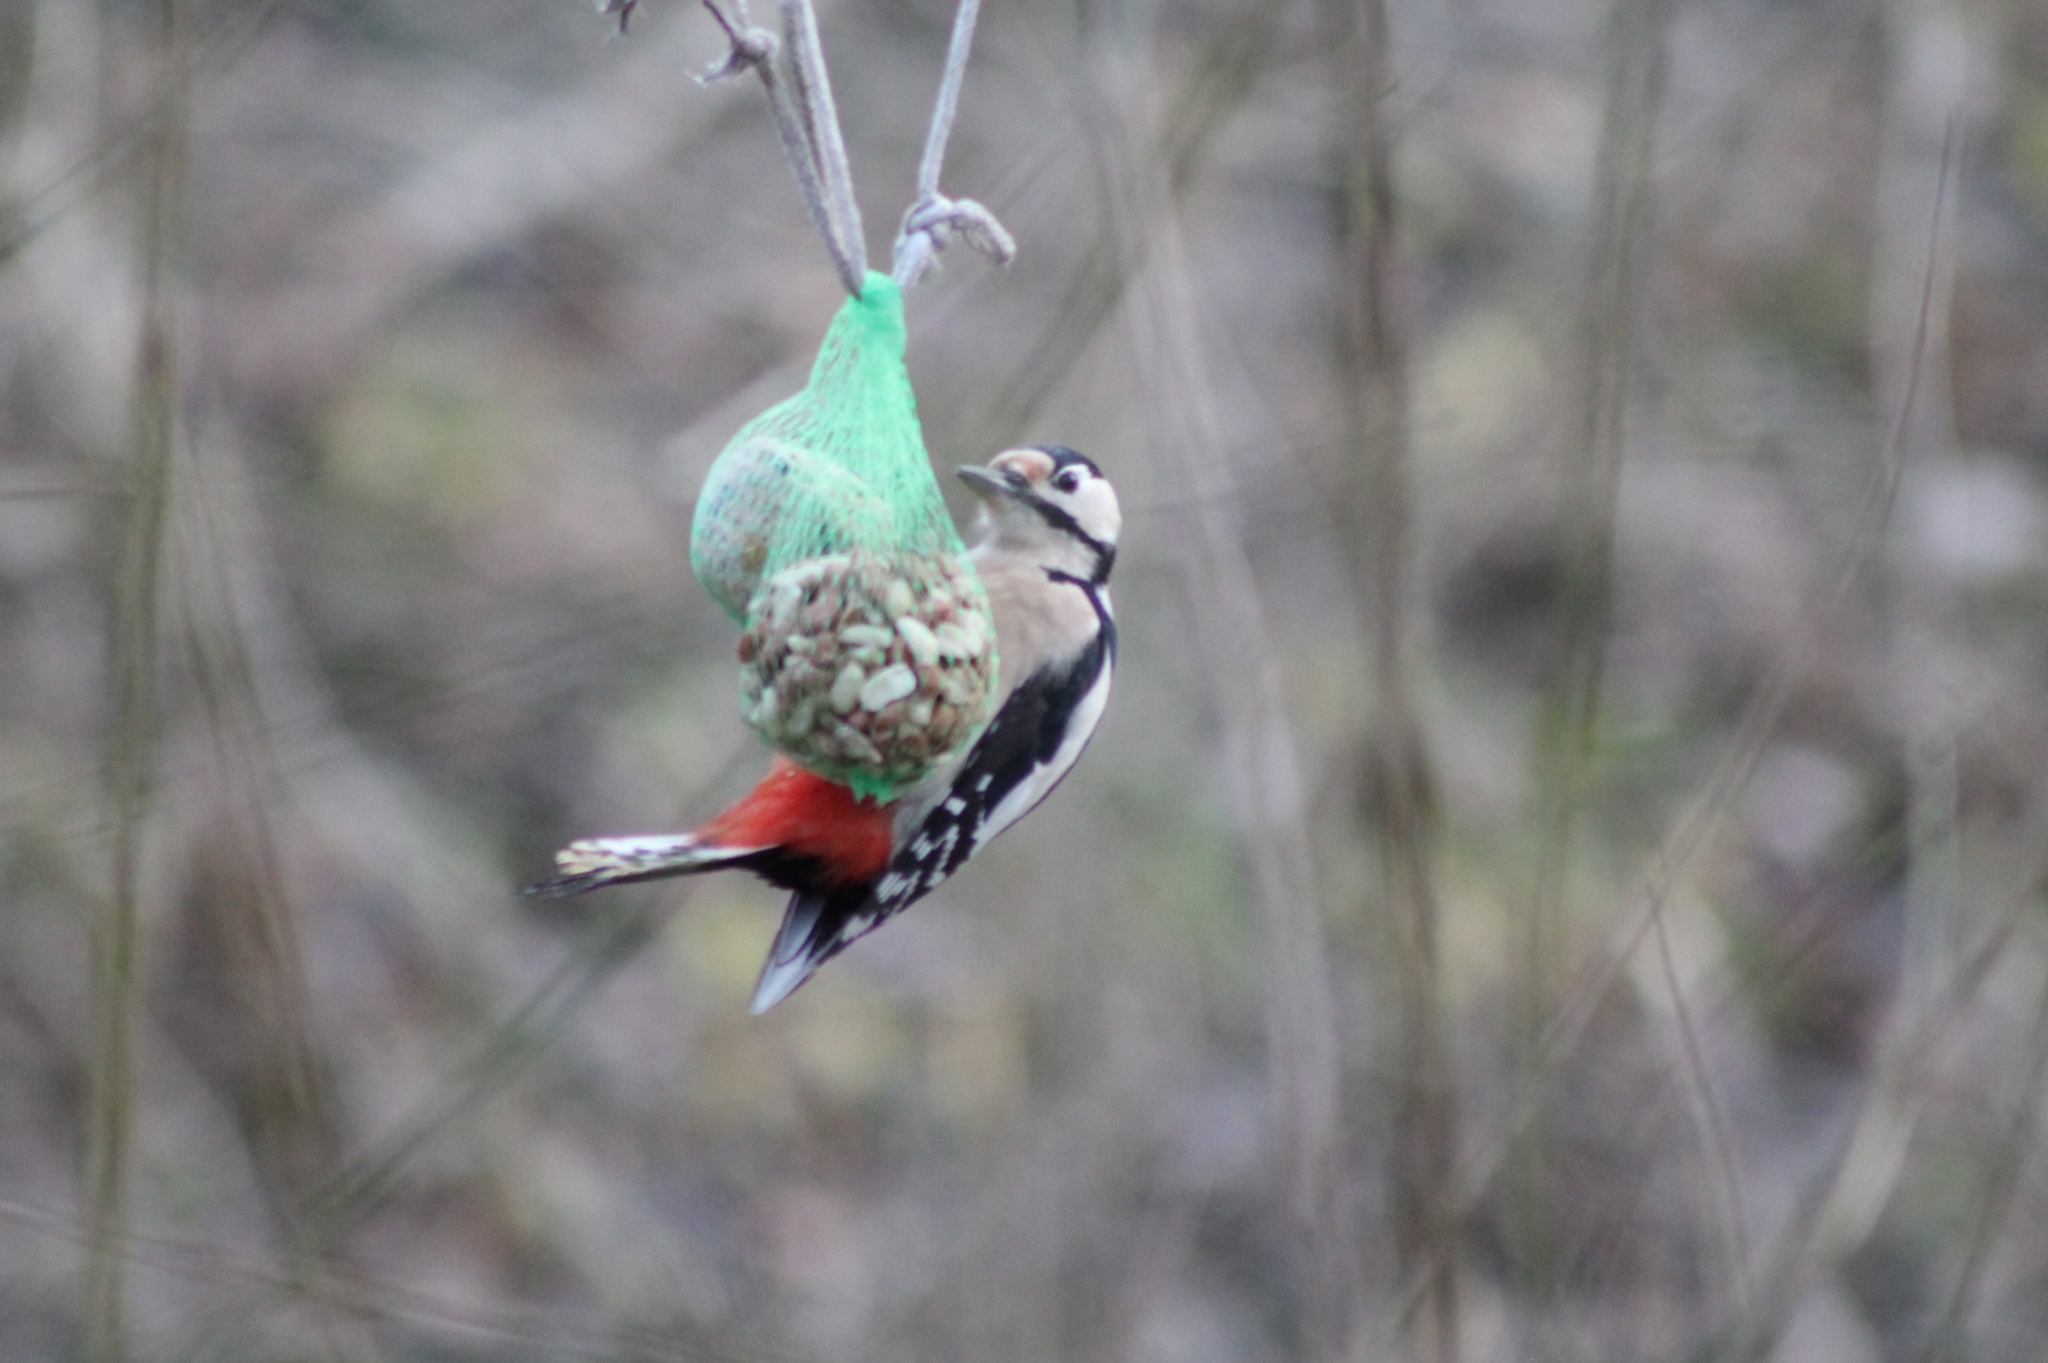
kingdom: Animalia
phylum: Chordata
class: Aves
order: Piciformes
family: Picidae
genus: Dendrocopos
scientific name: Dendrocopos major
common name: Great spotted woodpecker
